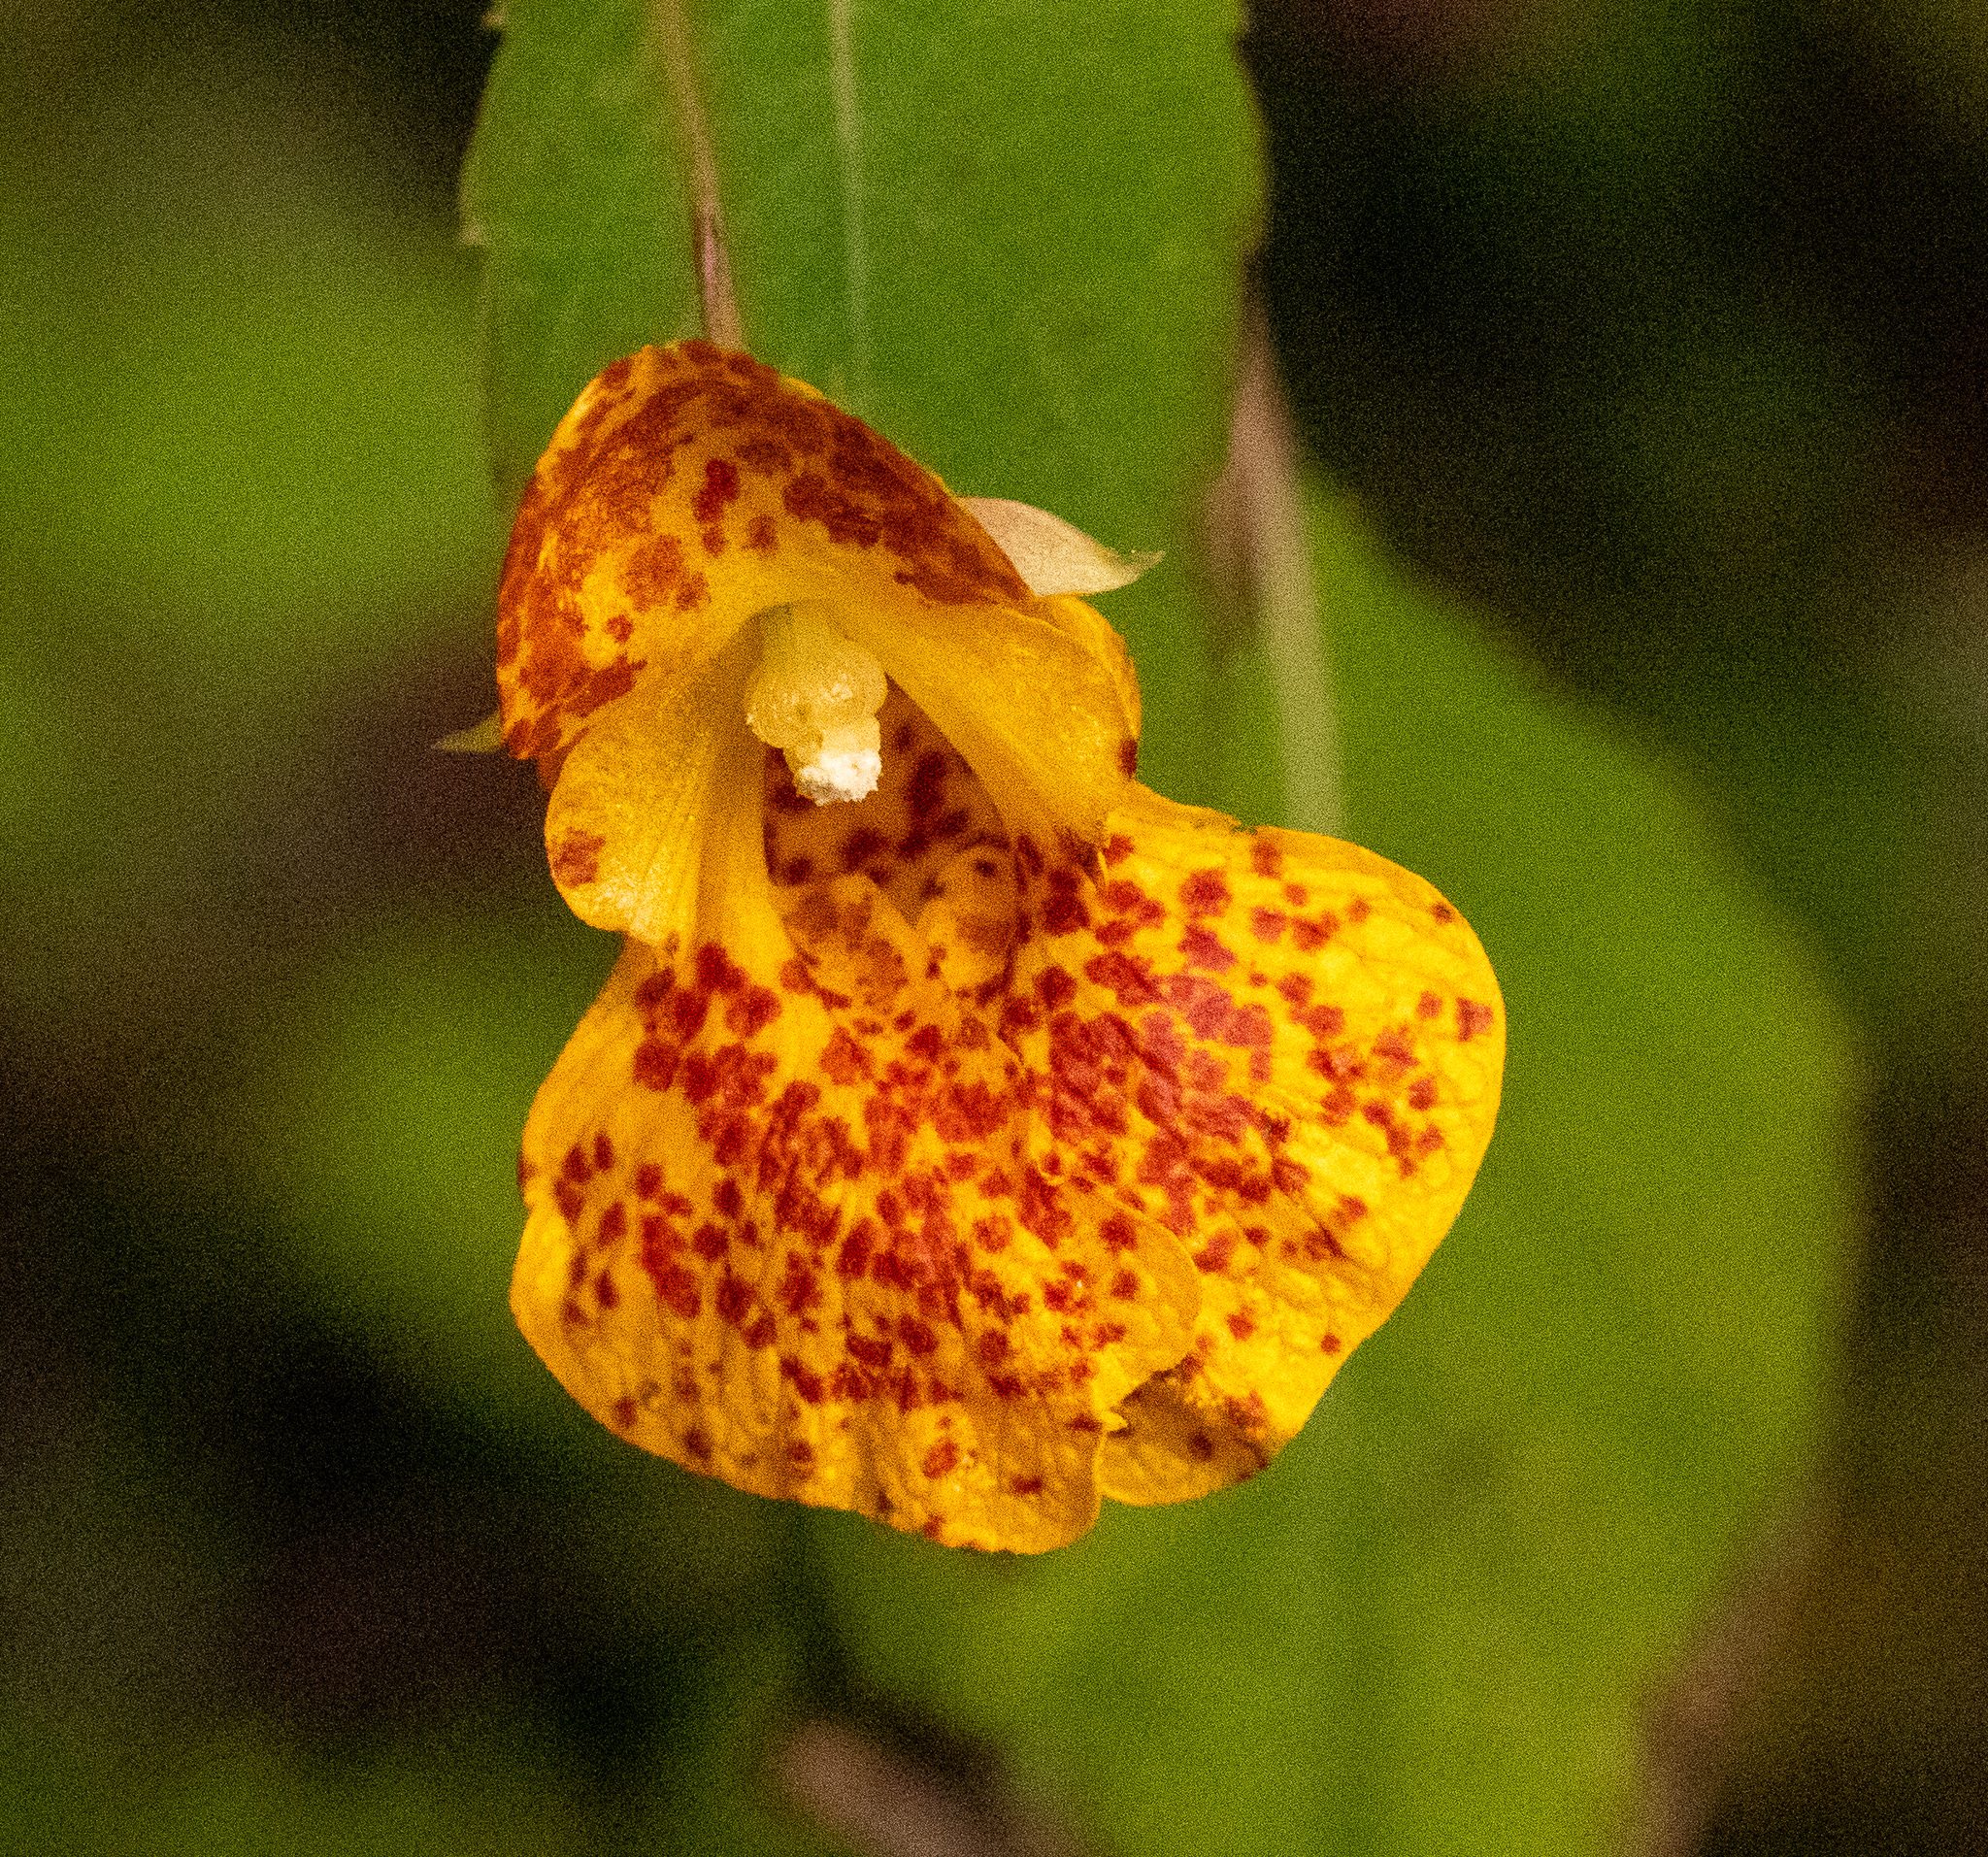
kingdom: Plantae
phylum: Tracheophyta
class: Magnoliopsida
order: Ericales
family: Balsaminaceae
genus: Impatiens
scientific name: Impatiens capensis
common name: Orange balsam
